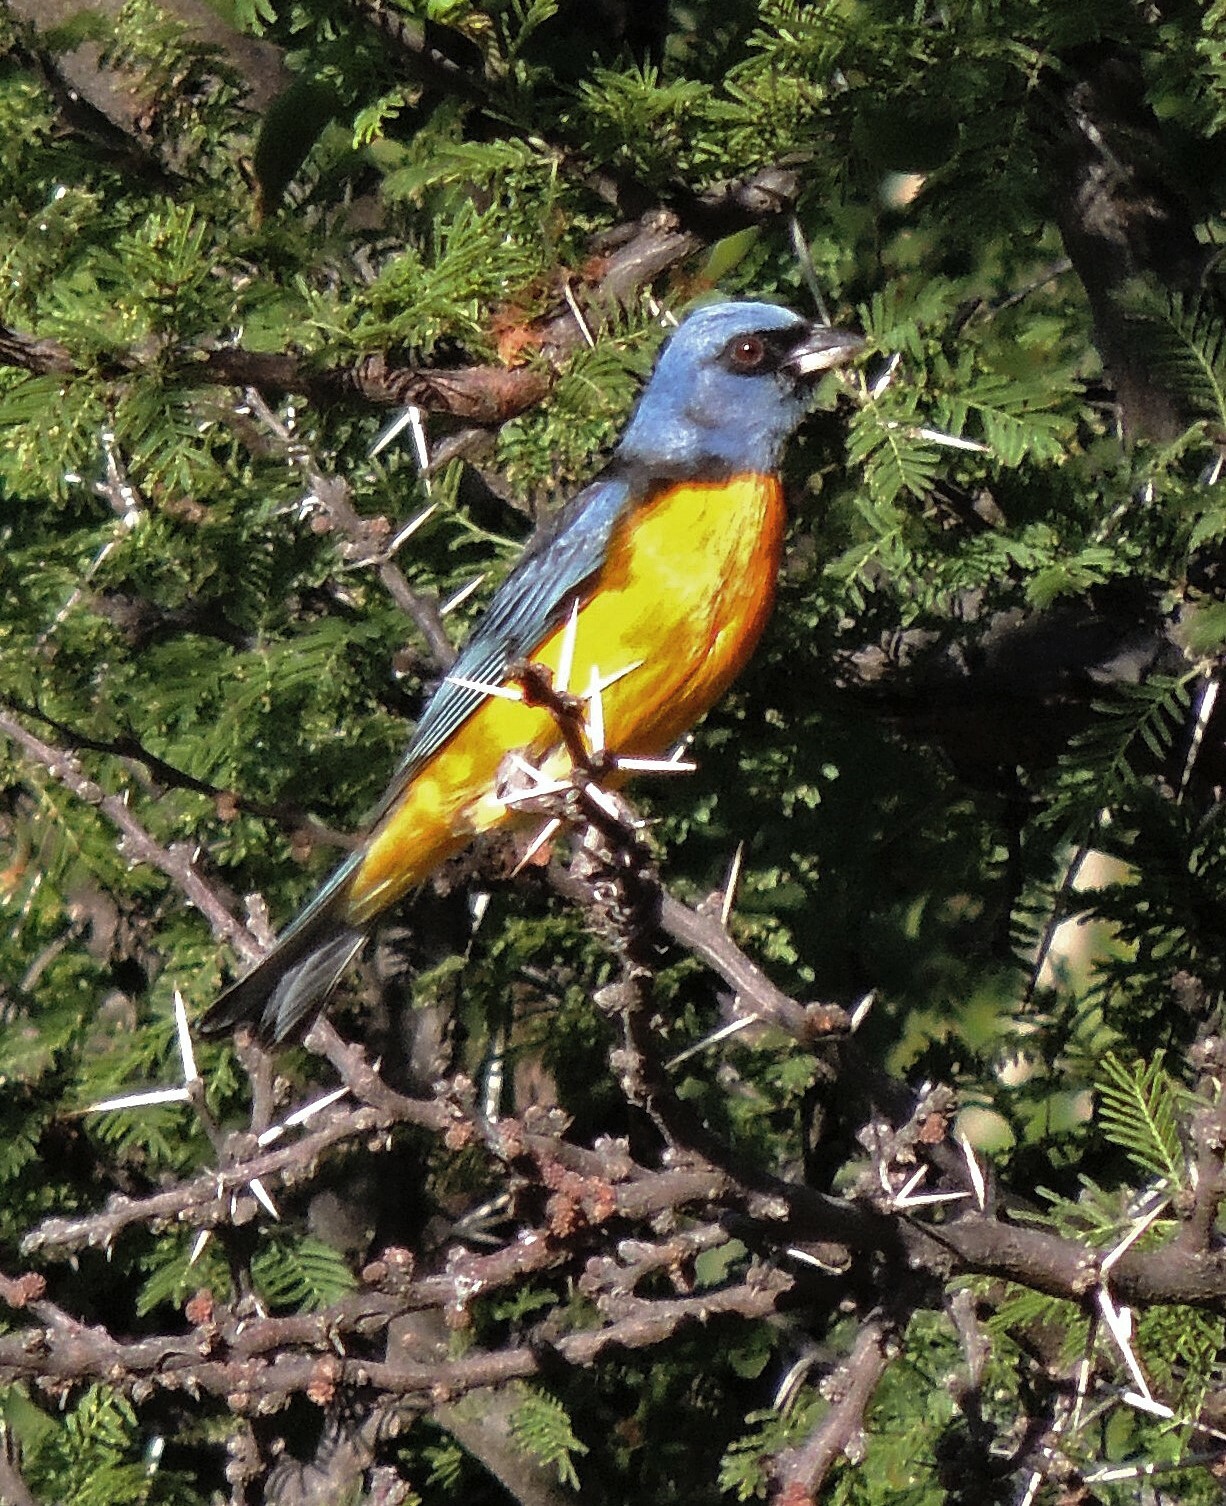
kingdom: Animalia
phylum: Chordata
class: Aves
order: Passeriformes
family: Thraupidae
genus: Rauenia
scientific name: Rauenia bonariensis
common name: Blue-and-yellow tanager
